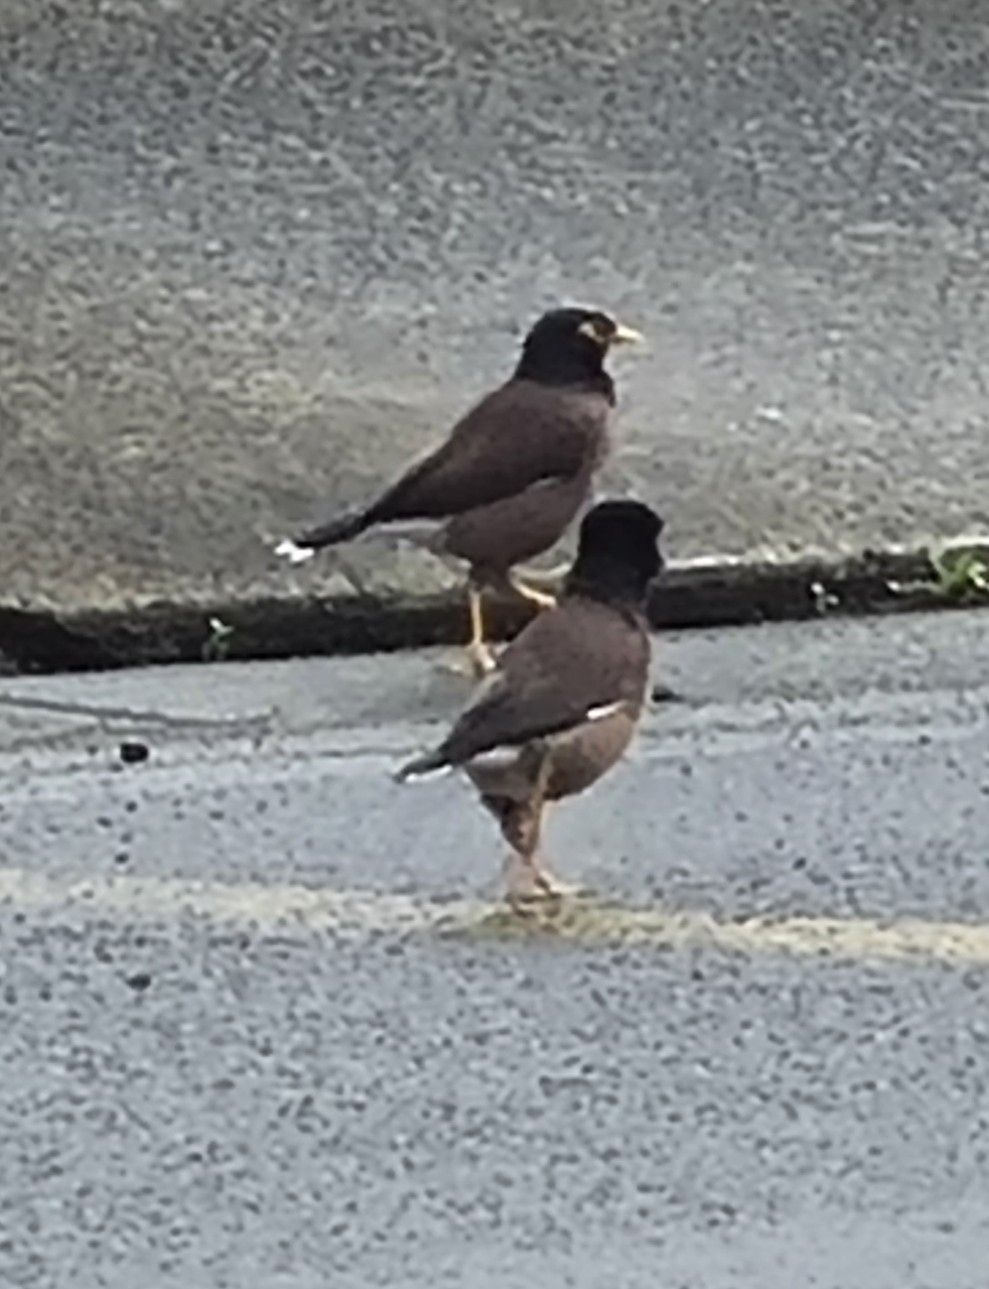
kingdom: Animalia
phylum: Chordata
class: Aves
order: Passeriformes
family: Sturnidae
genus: Acridotheres
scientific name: Acridotheres tristis
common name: Common myna
